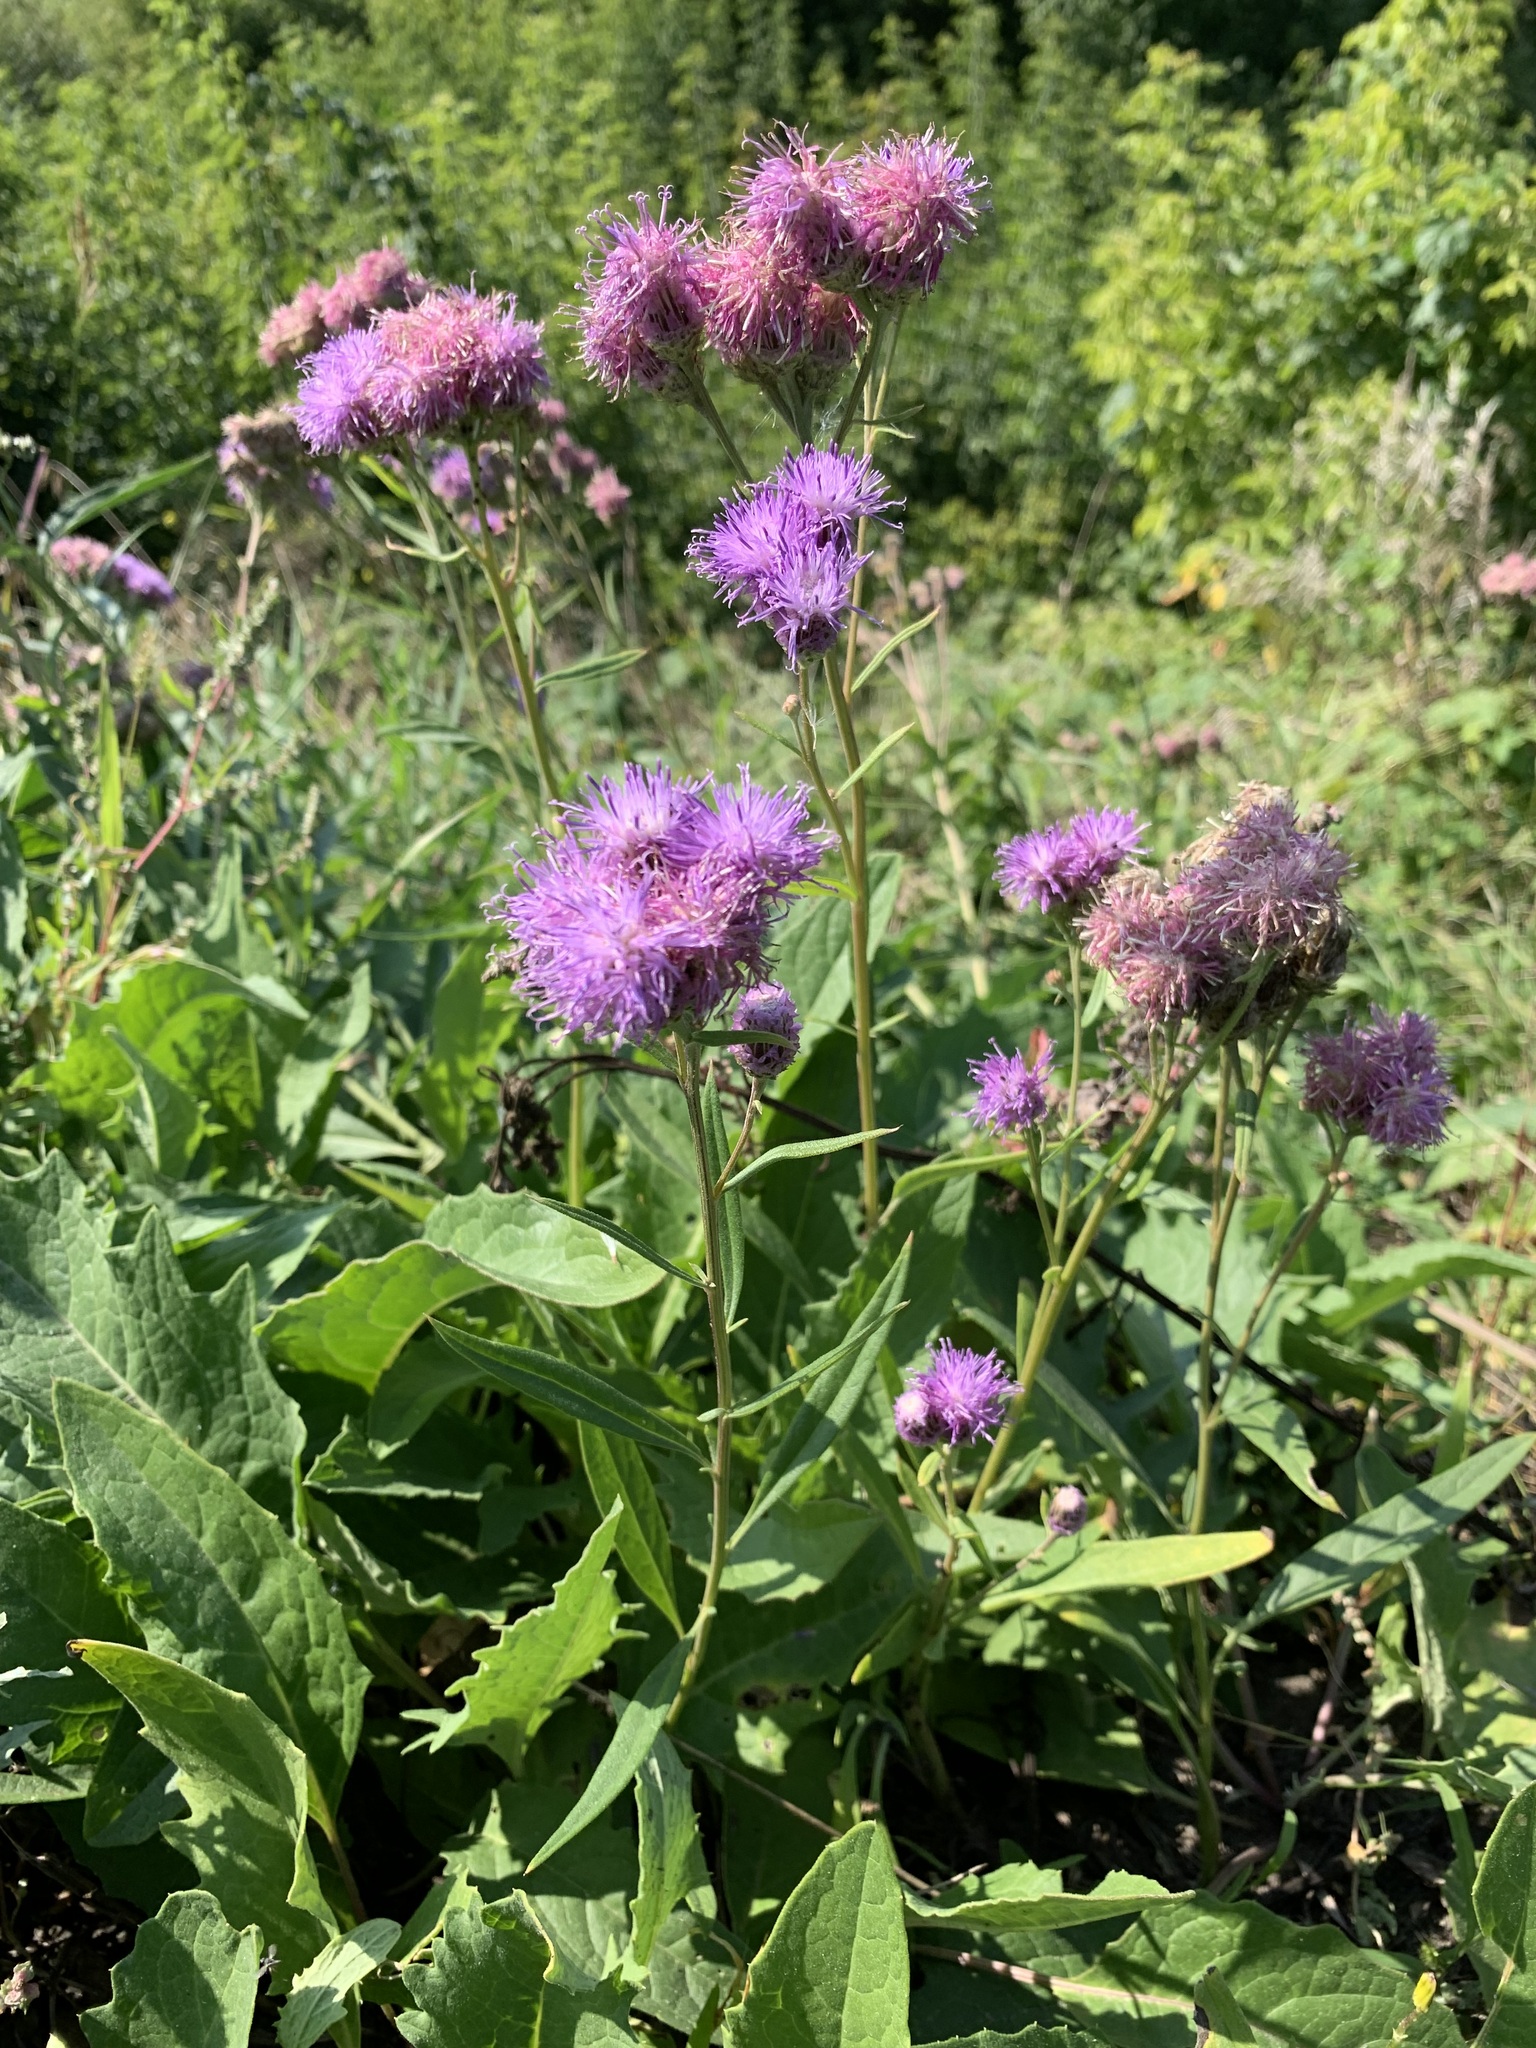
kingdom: Plantae
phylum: Tracheophyta
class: Magnoliopsida
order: Asterales
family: Asteraceae
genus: Saussurea
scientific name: Saussurea amara
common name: Alberta sawwort
